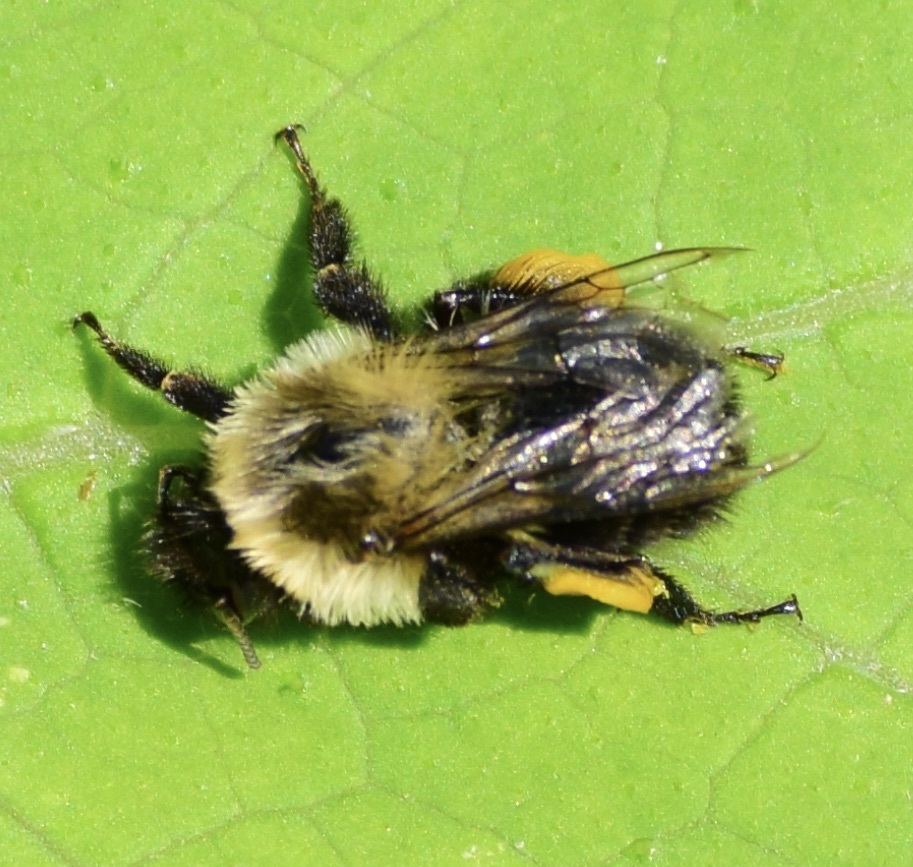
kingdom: Animalia
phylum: Arthropoda
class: Insecta
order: Hymenoptera
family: Apidae
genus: Bombus
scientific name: Bombus impatiens
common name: Common eastern bumble bee
